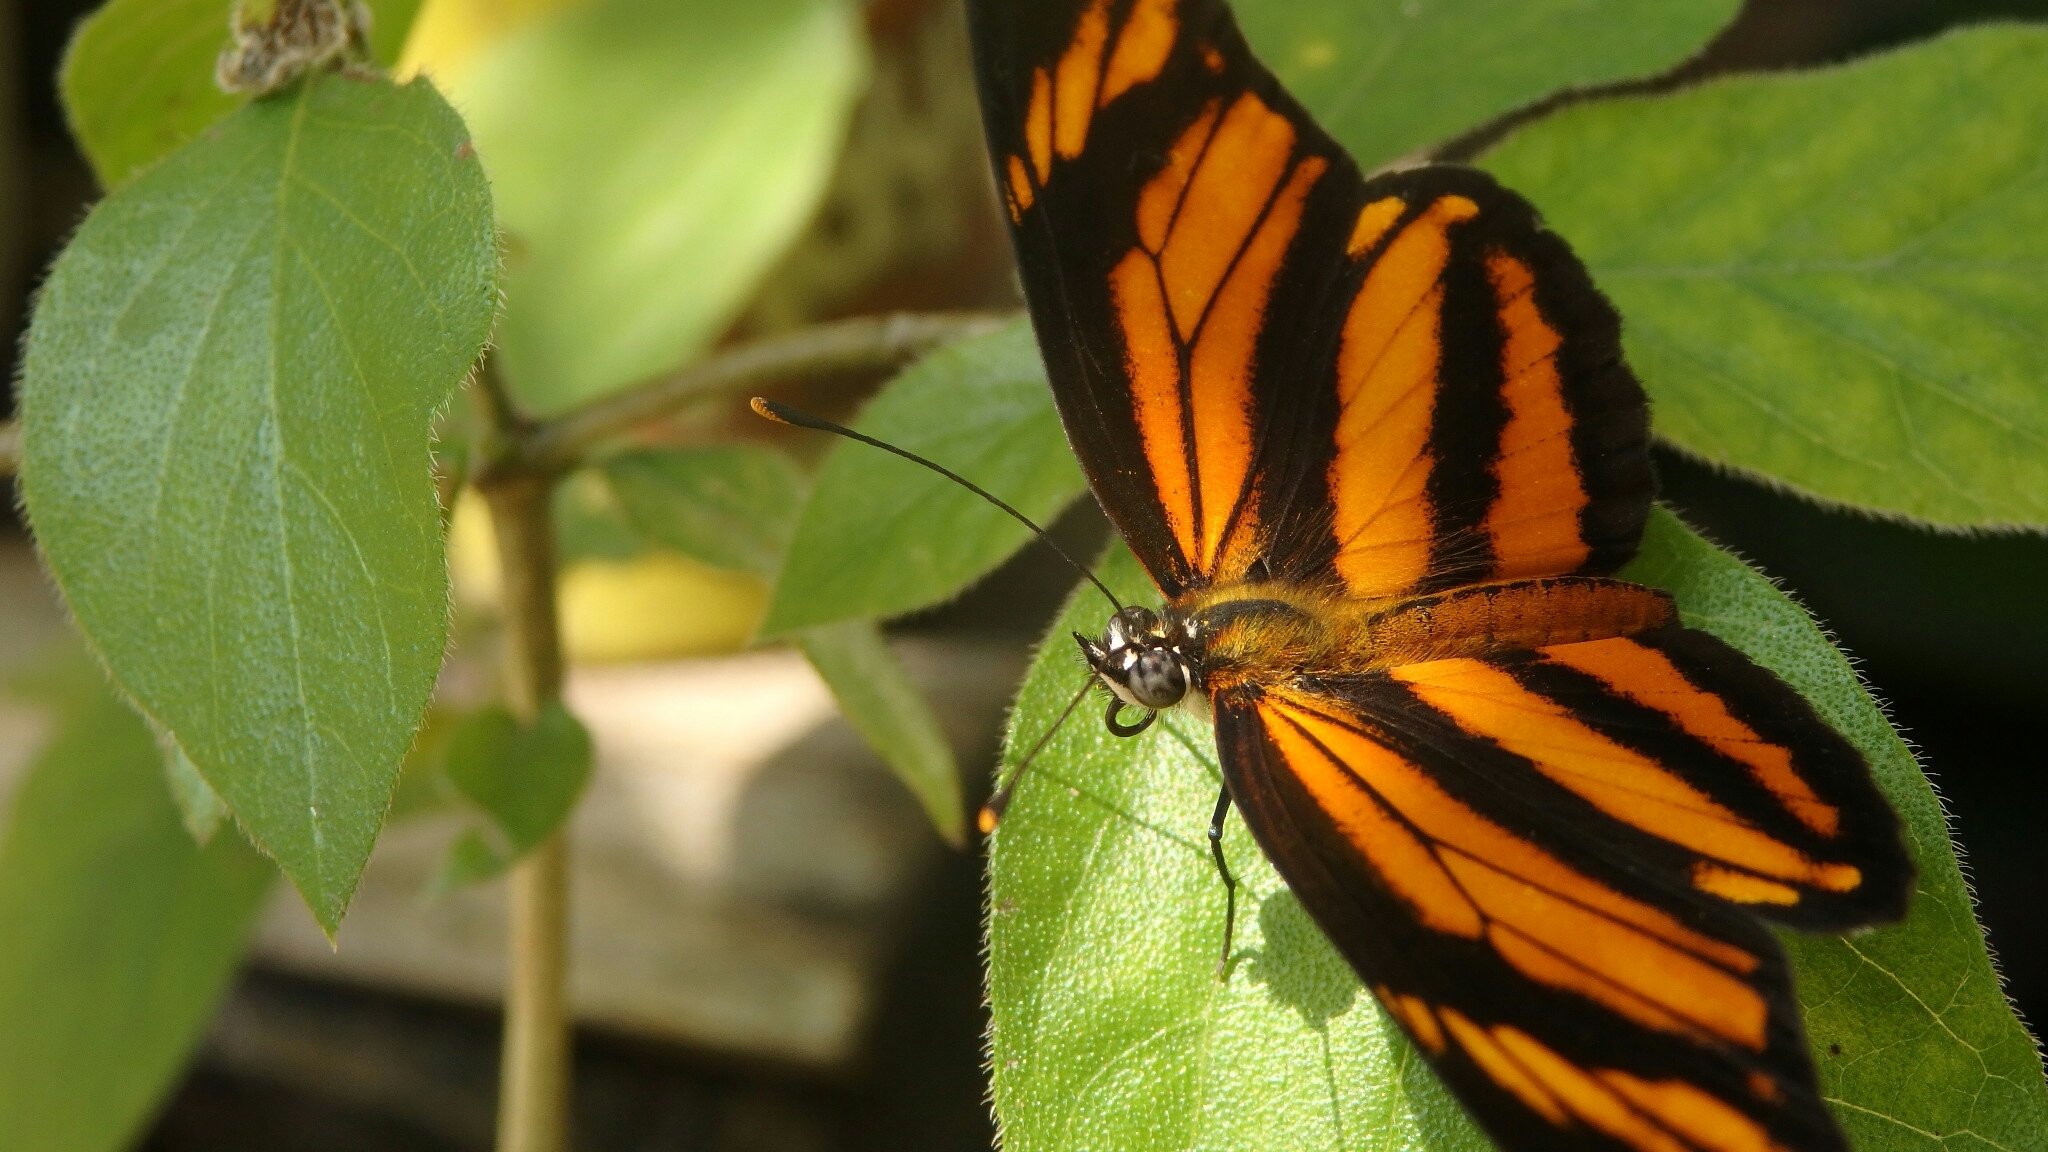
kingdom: Animalia
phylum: Arthropoda
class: Insecta
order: Lepidoptera
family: Nymphalidae
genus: Eresia
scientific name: Eresia phillyra
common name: Longwing crescent
